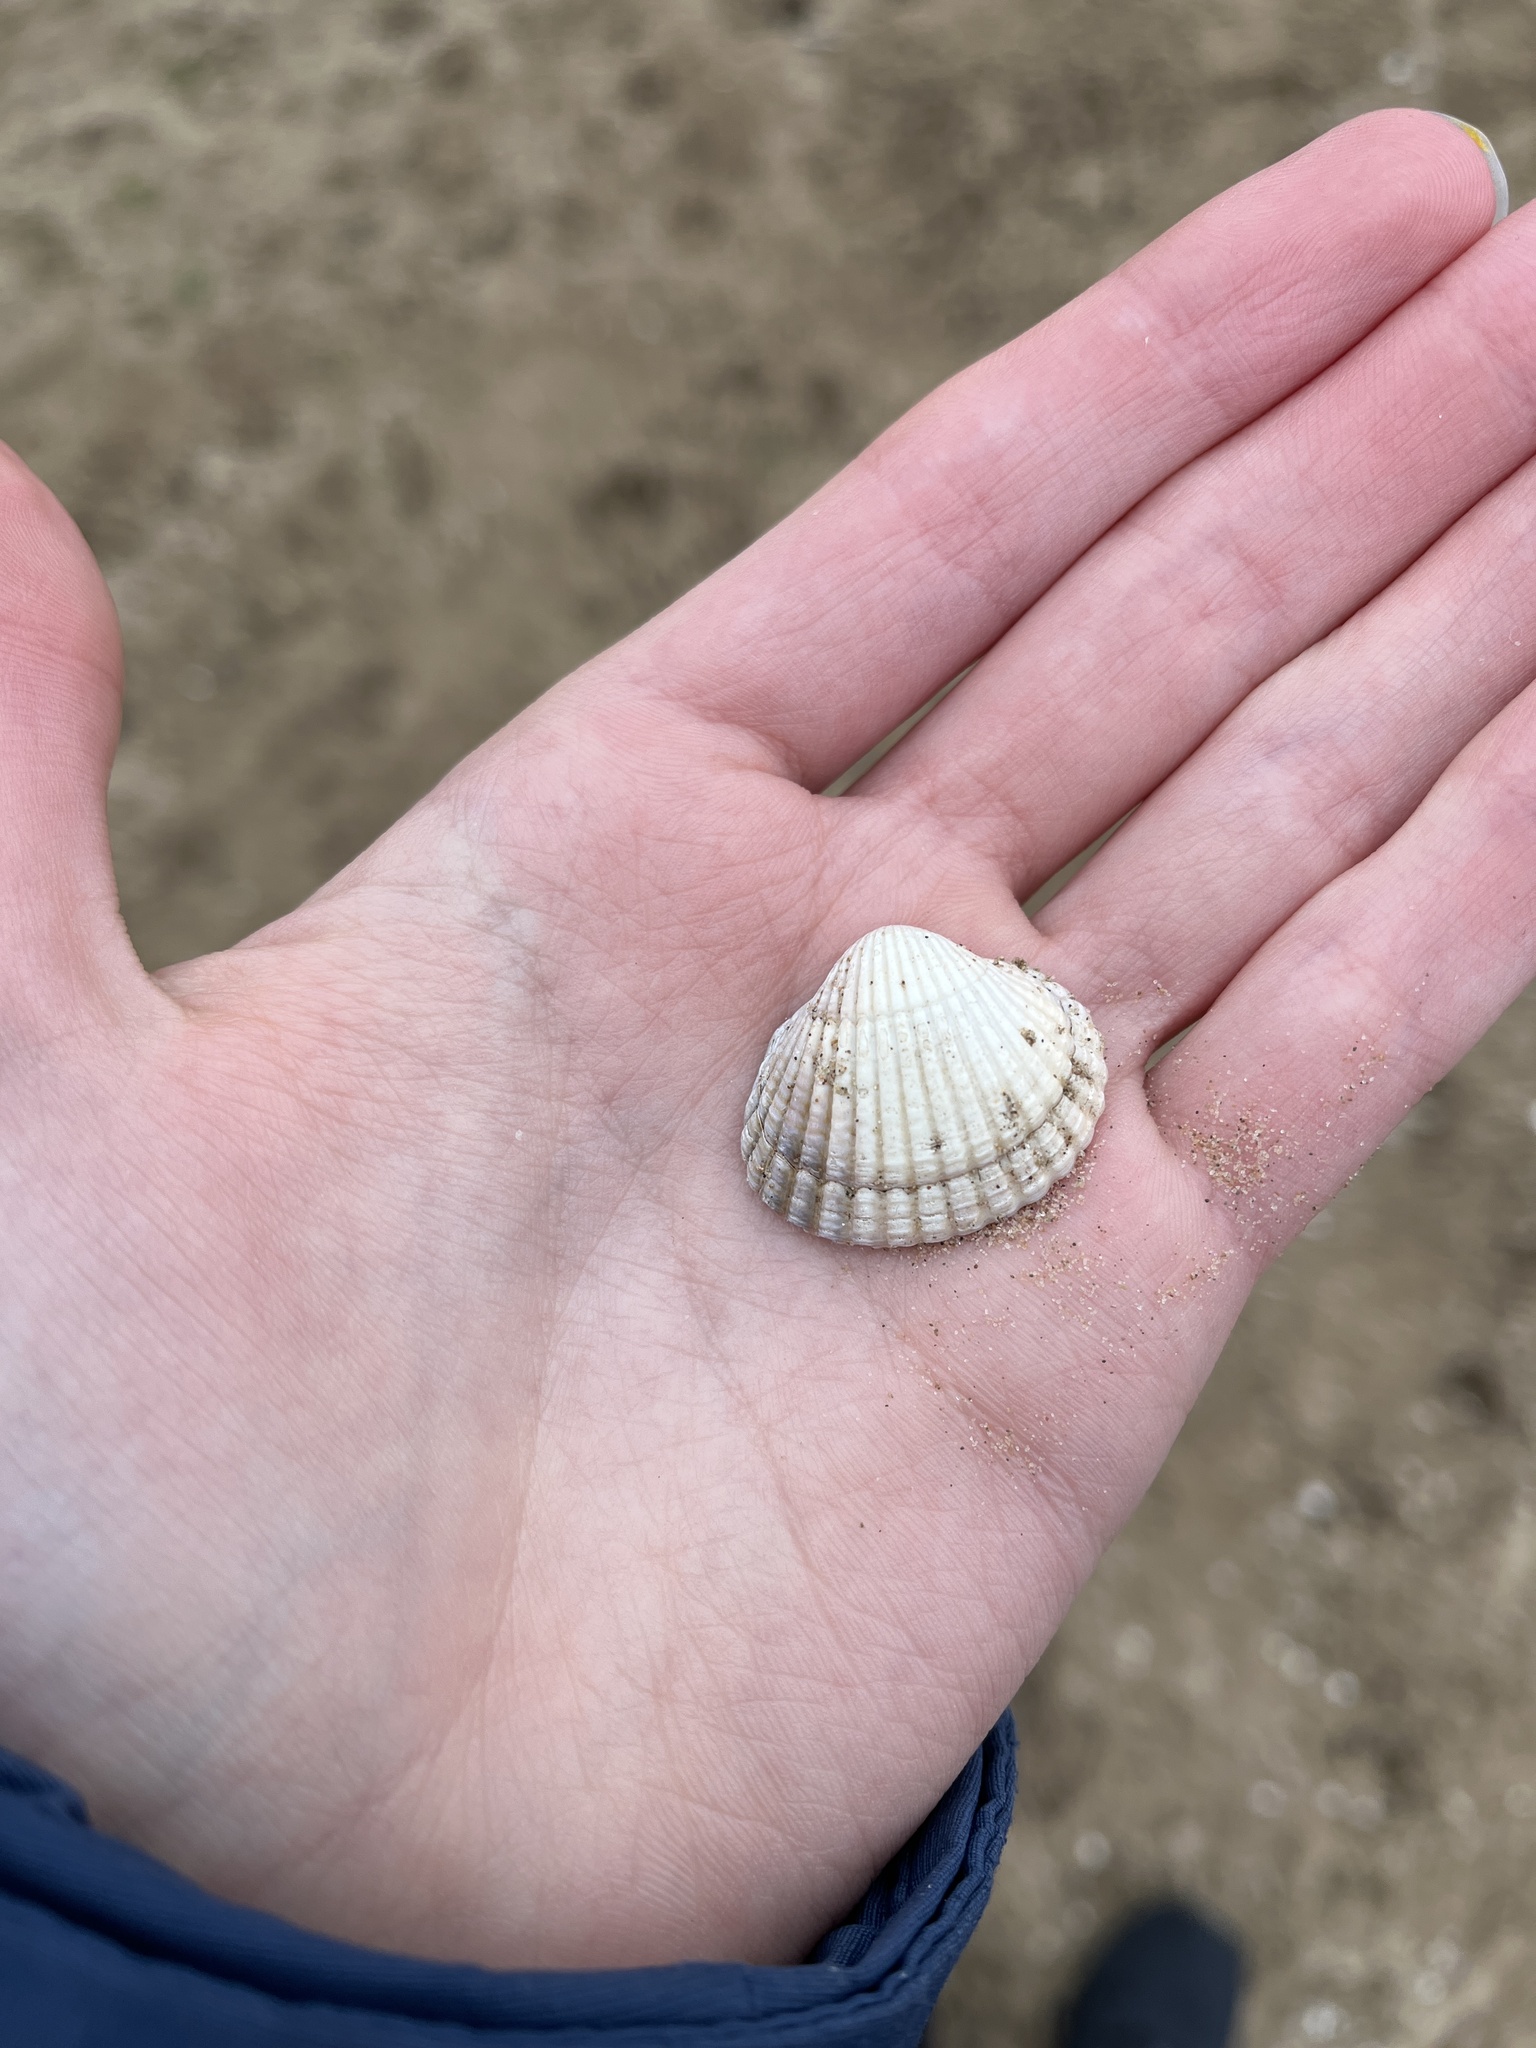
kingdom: Animalia
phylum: Mollusca
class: Bivalvia
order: Cardiida
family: Cardiidae
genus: Cerastoderma
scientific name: Cerastoderma edule
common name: Common cockle
